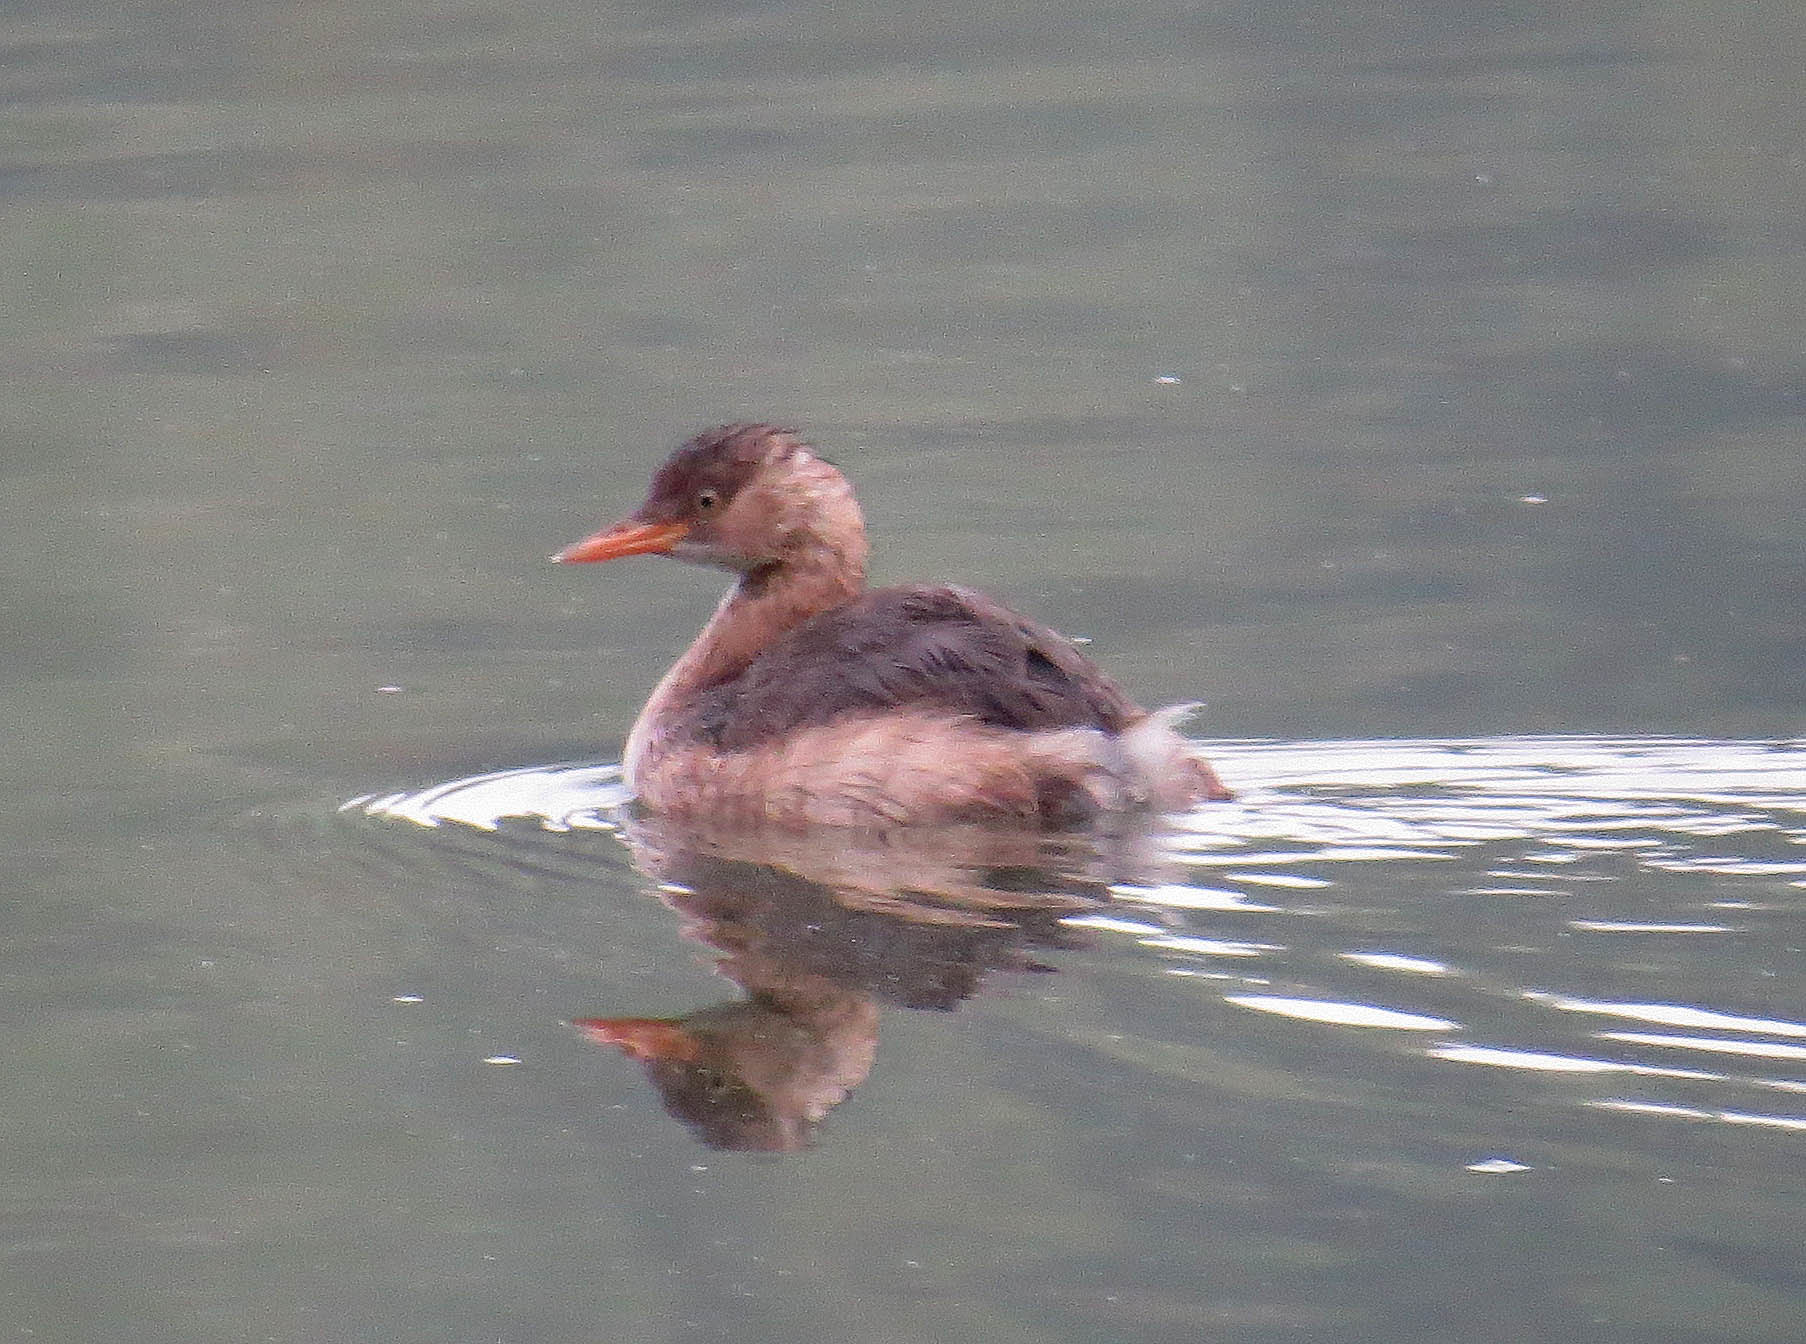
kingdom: Animalia
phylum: Chordata
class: Aves
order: Podicipediformes
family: Podicipedidae
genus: Tachybaptus
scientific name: Tachybaptus ruficollis
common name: Little grebe
